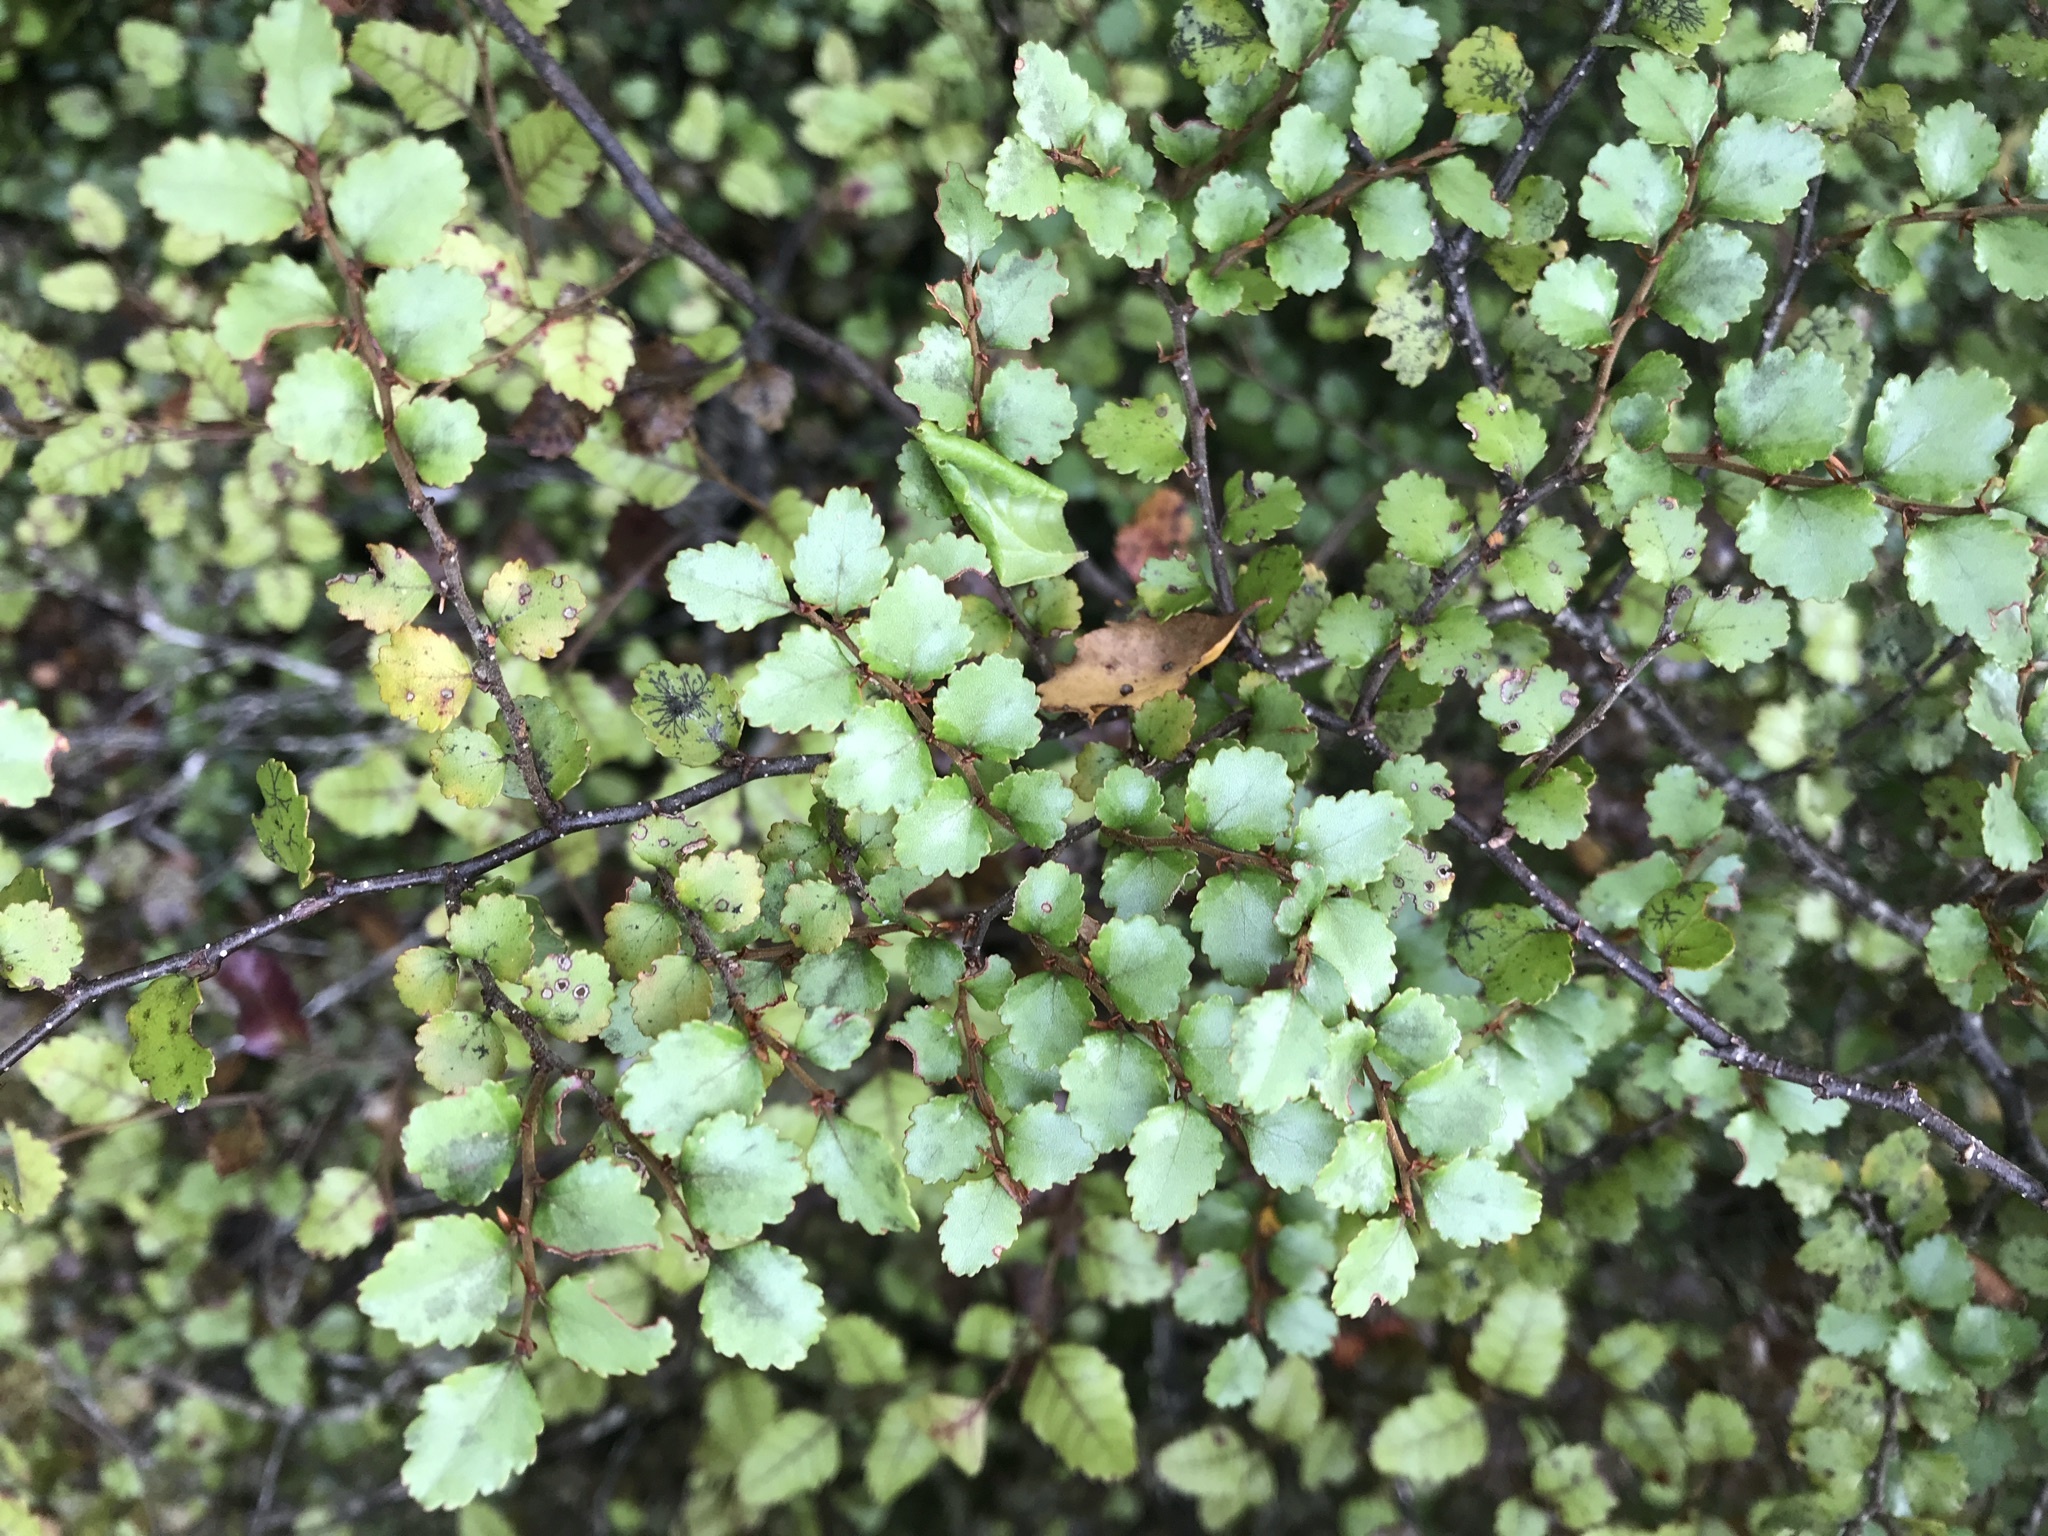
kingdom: Plantae
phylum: Tracheophyta
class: Magnoliopsida
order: Fagales
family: Nothofagaceae
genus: Nothofagus
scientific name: Nothofagus menziesii
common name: Silver beech
